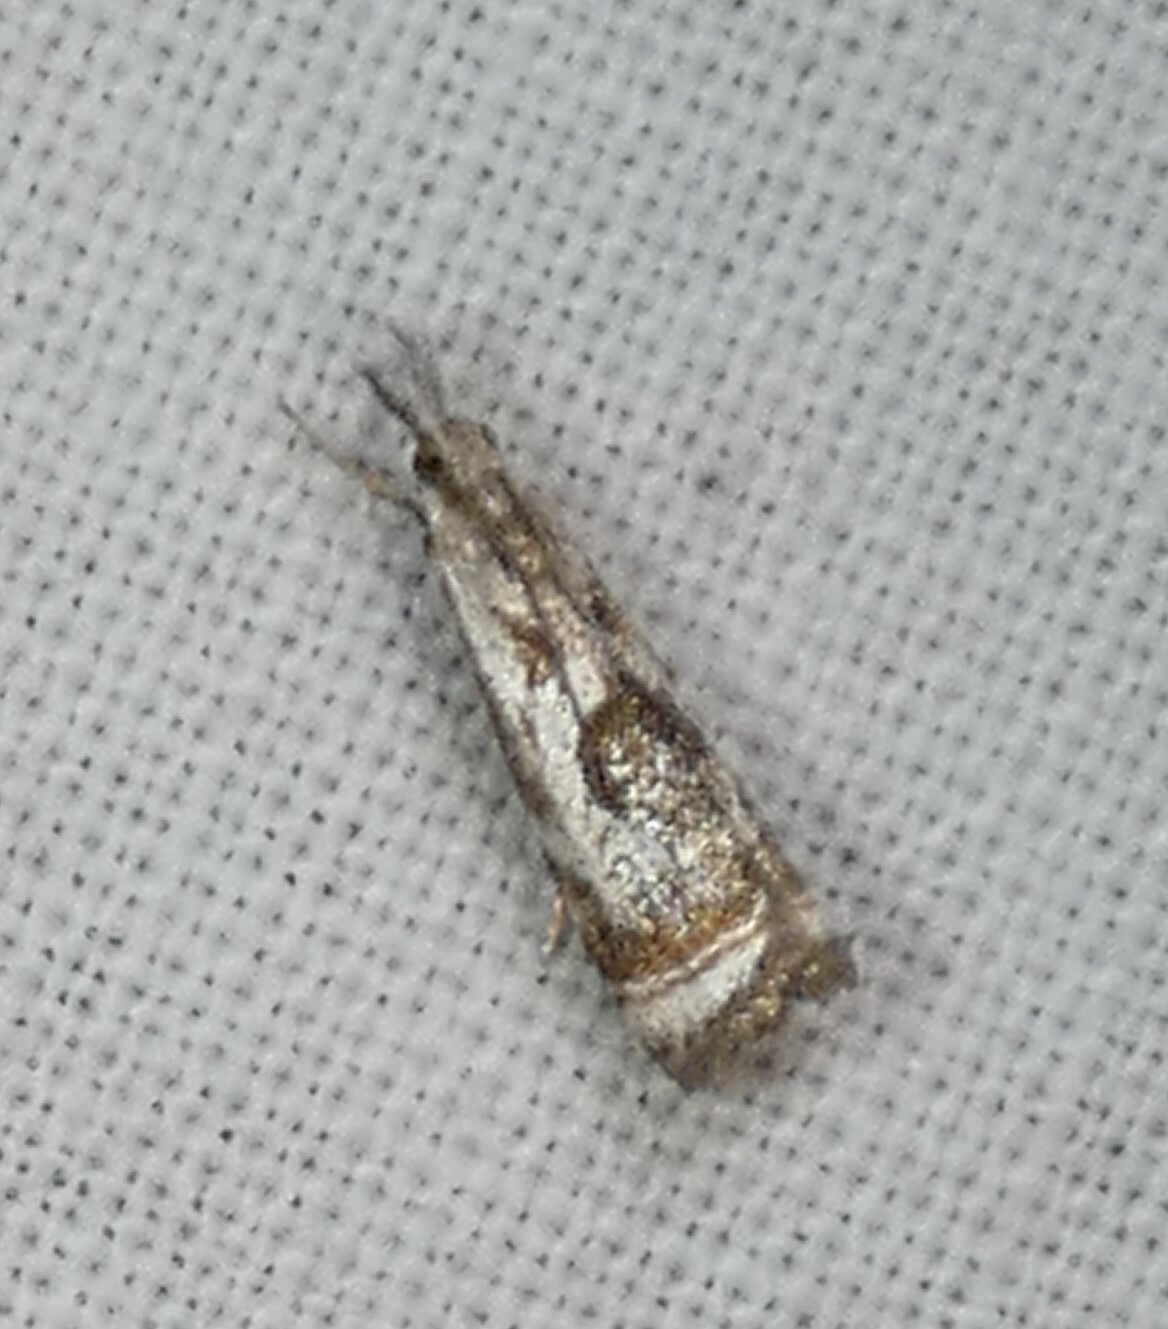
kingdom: Animalia
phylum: Arthropoda
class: Insecta
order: Lepidoptera
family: Crambidae
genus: Microcrambus
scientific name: Microcrambus elegans
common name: Elegant grass-veneer
